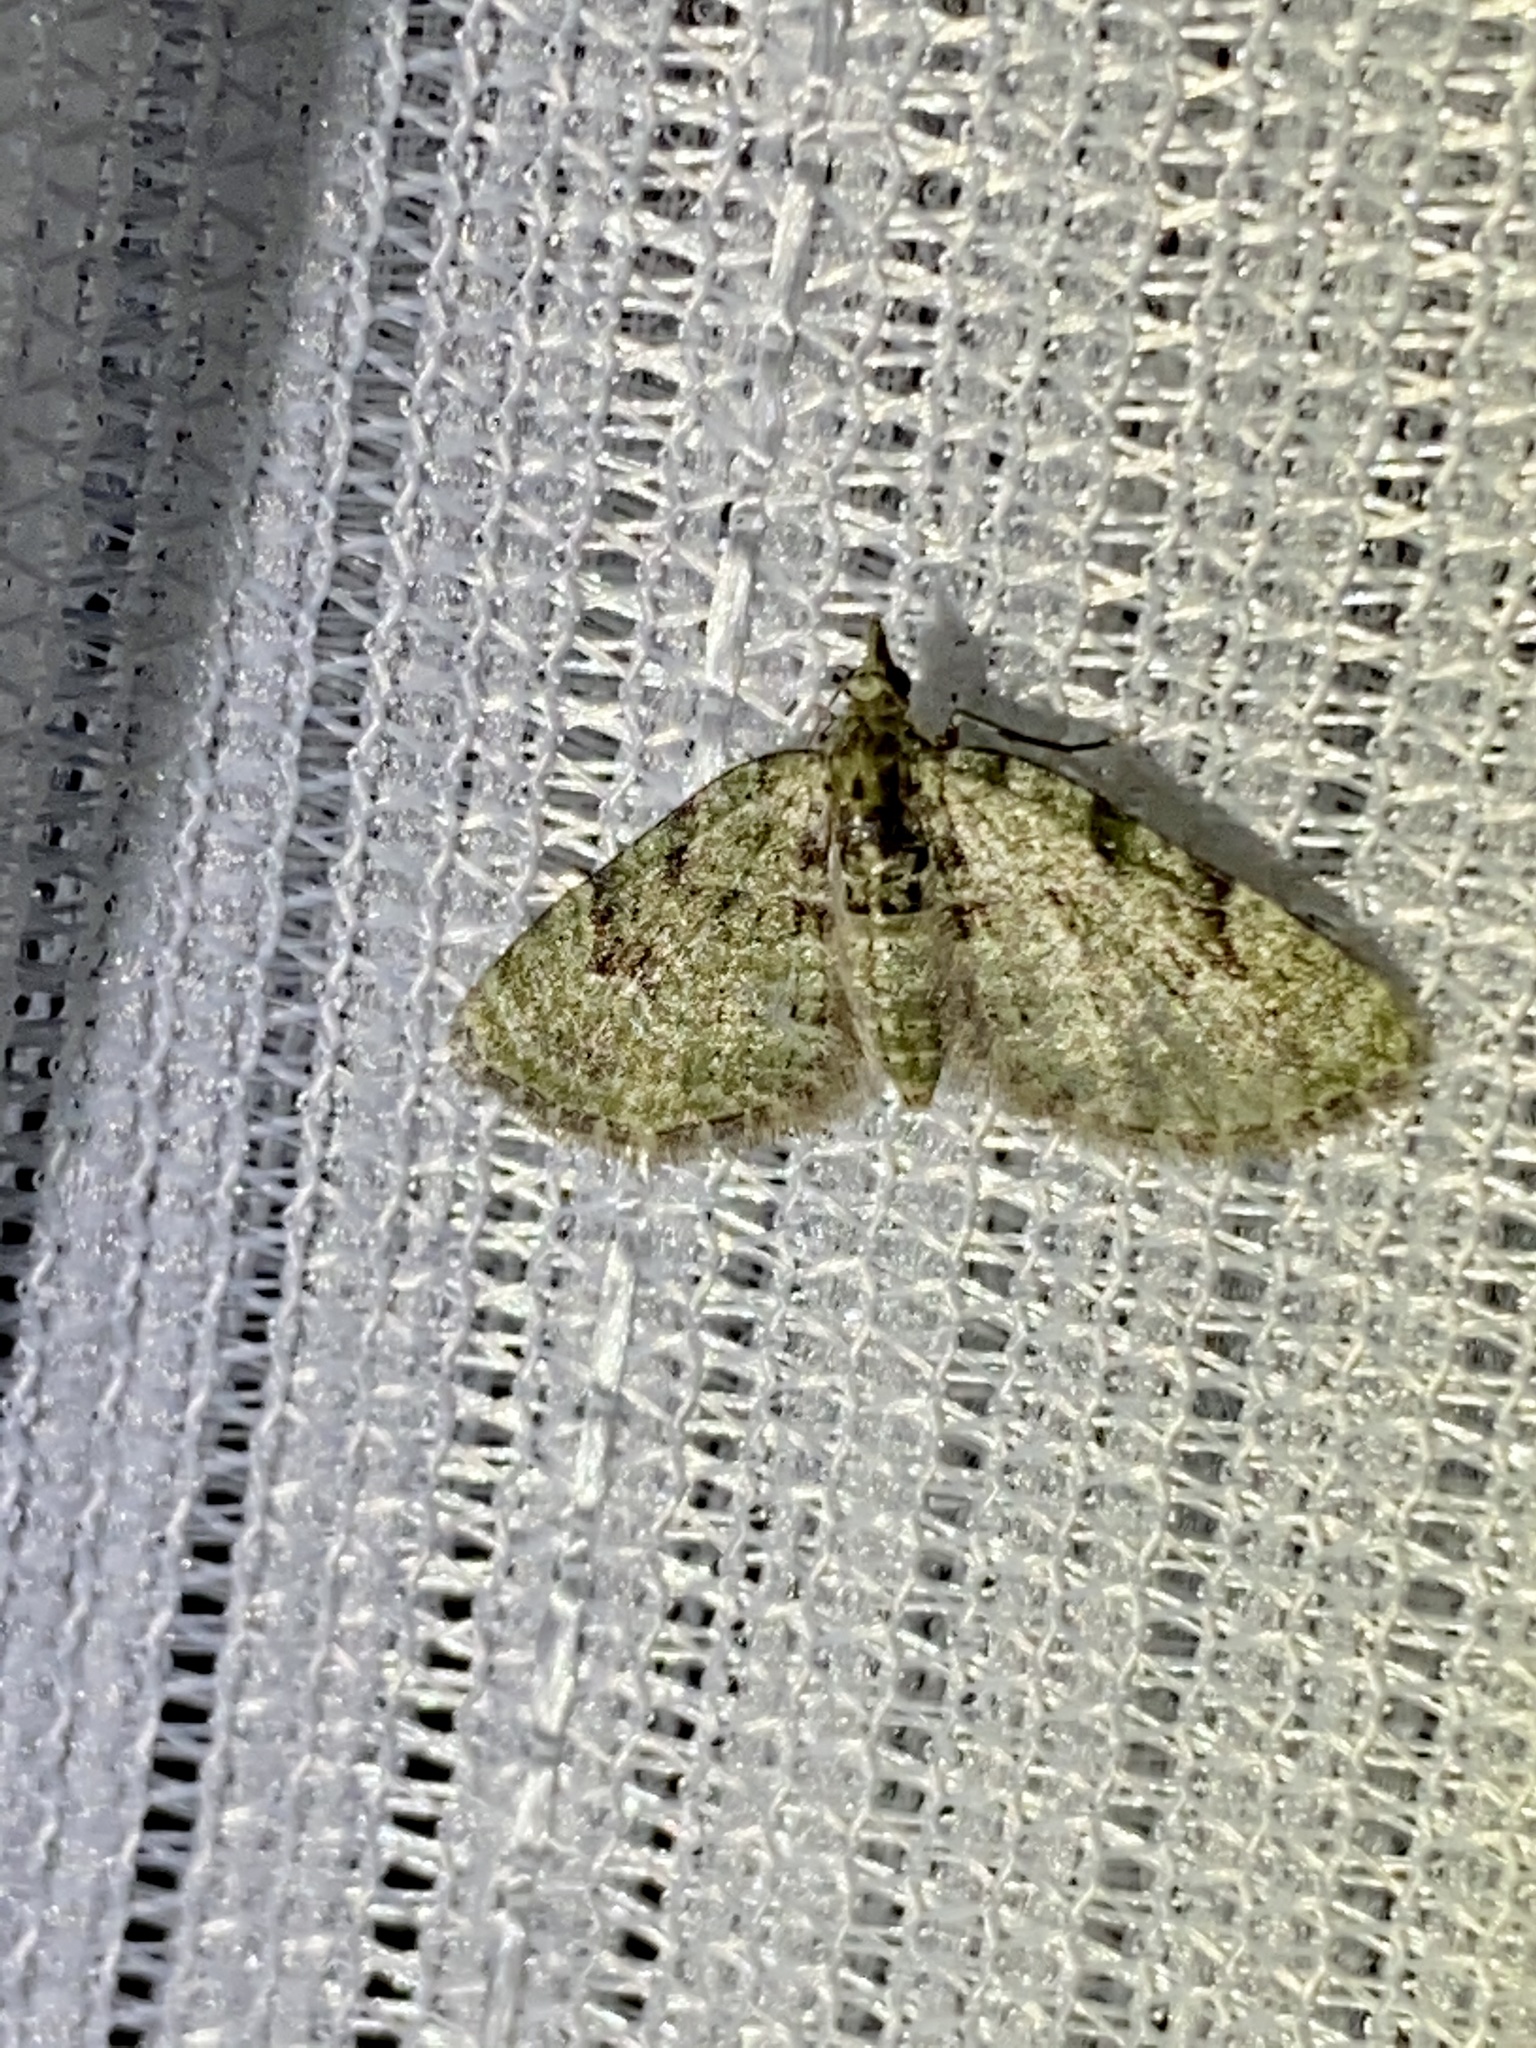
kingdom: Animalia
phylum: Arthropoda
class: Insecta
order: Lepidoptera
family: Geometridae
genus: Chloroclystis
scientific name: Chloroclystis v-ata
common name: V-pug
